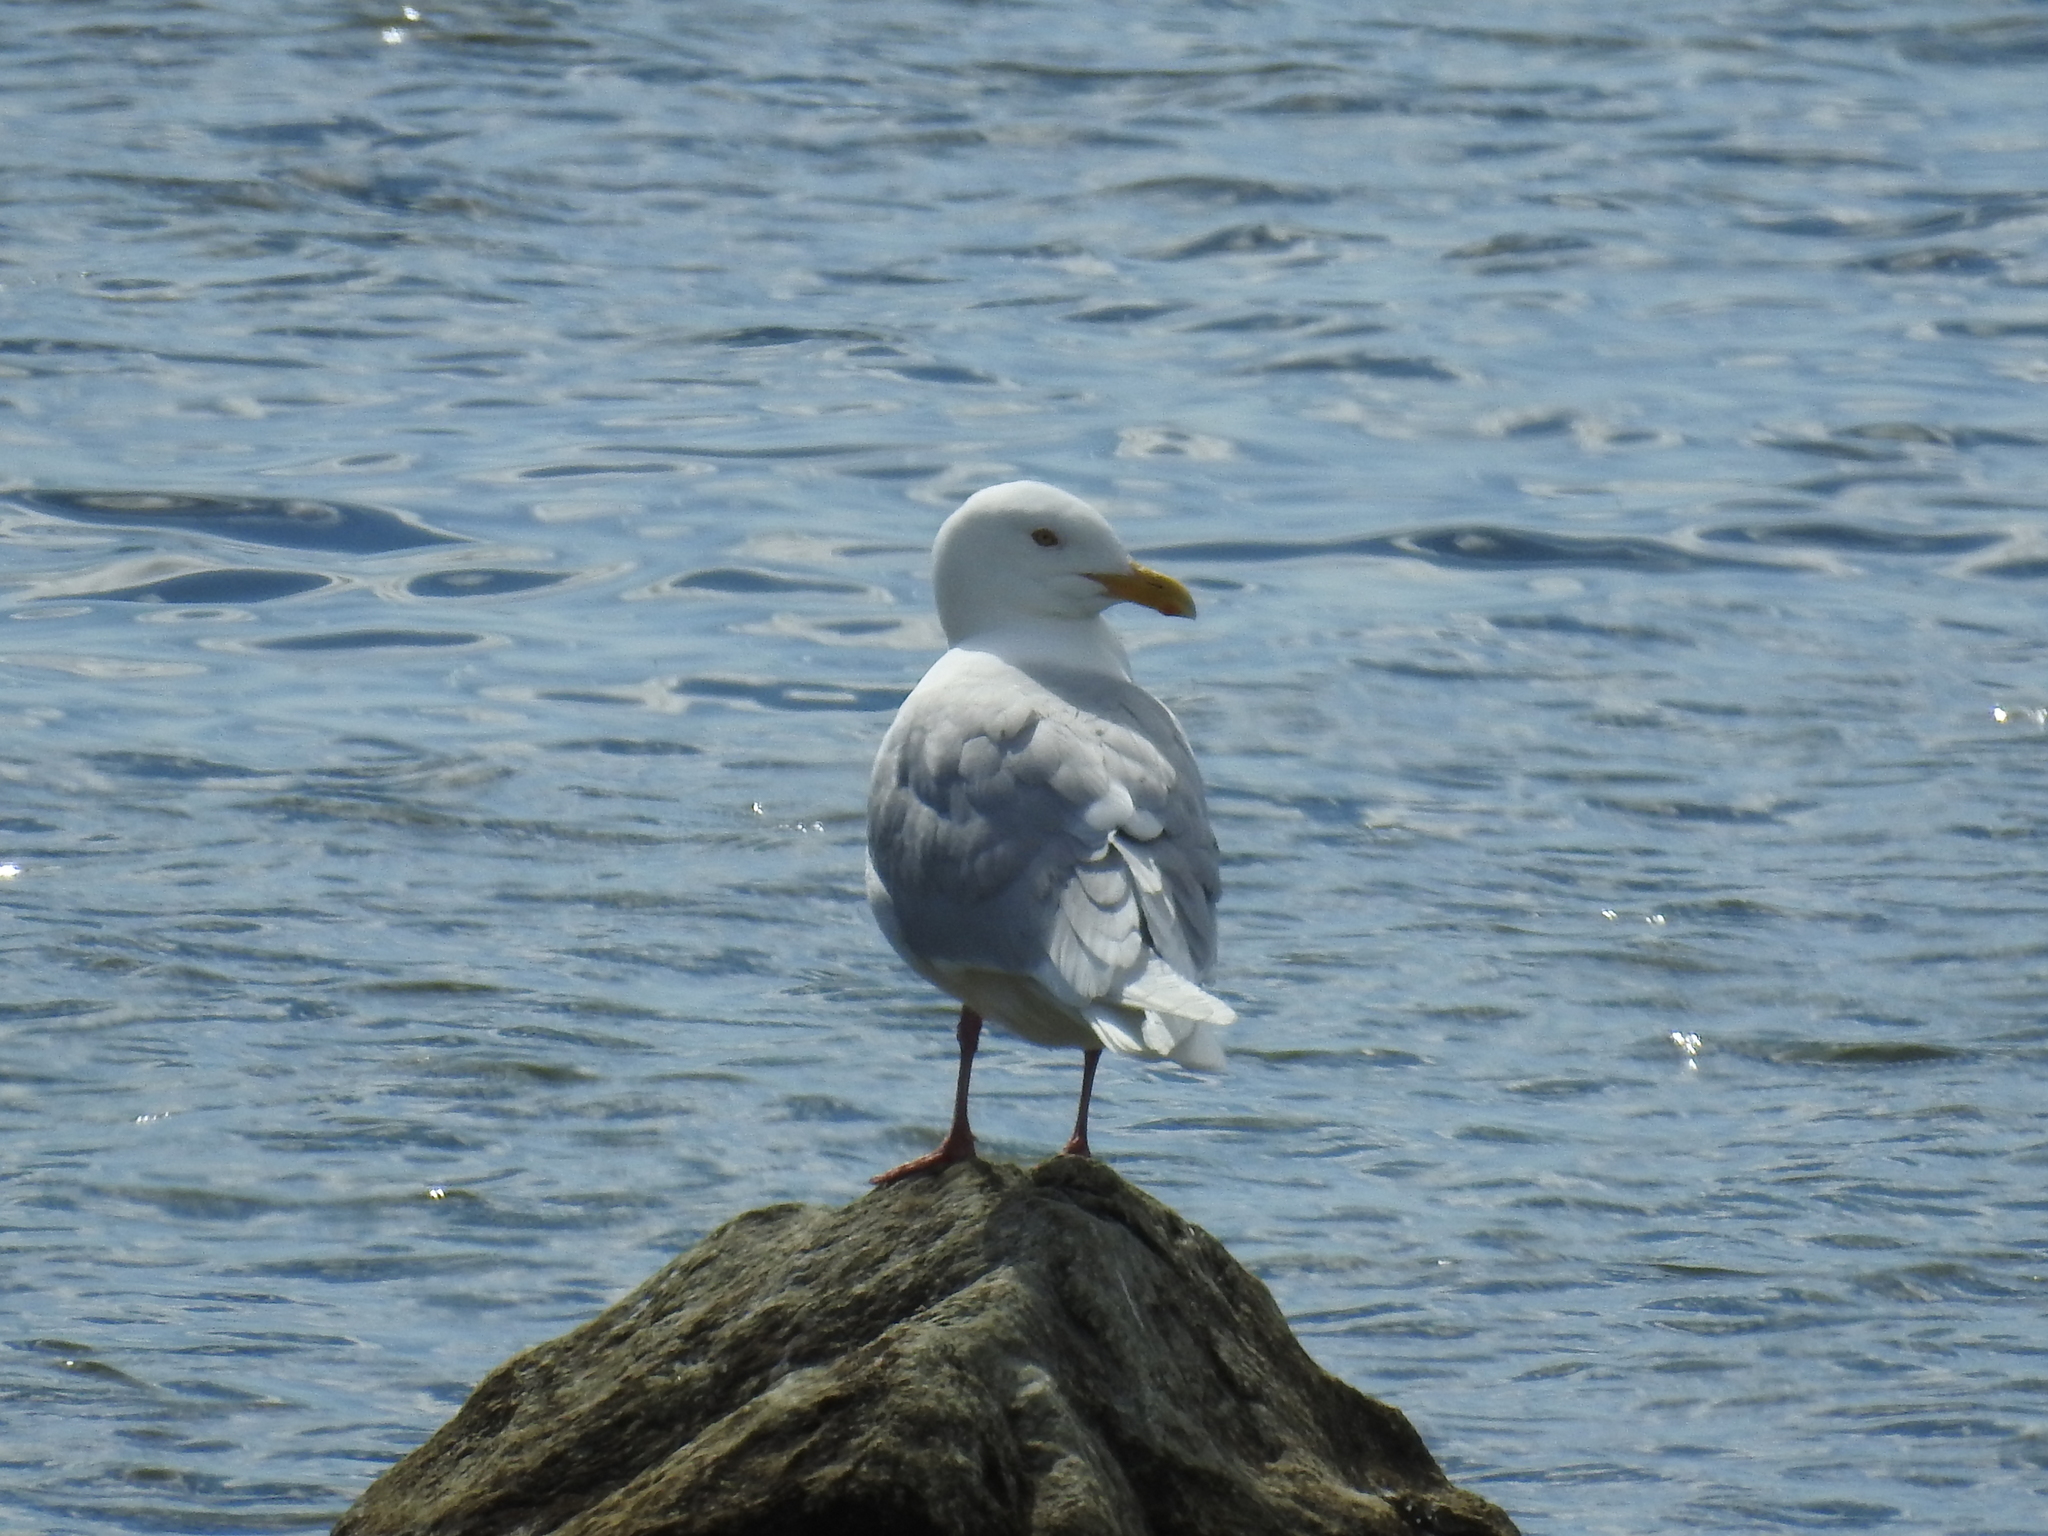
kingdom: Animalia
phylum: Chordata
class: Aves
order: Charadriiformes
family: Laridae
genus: Larus
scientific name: Larus hyperboreus
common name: Glaucous gull
